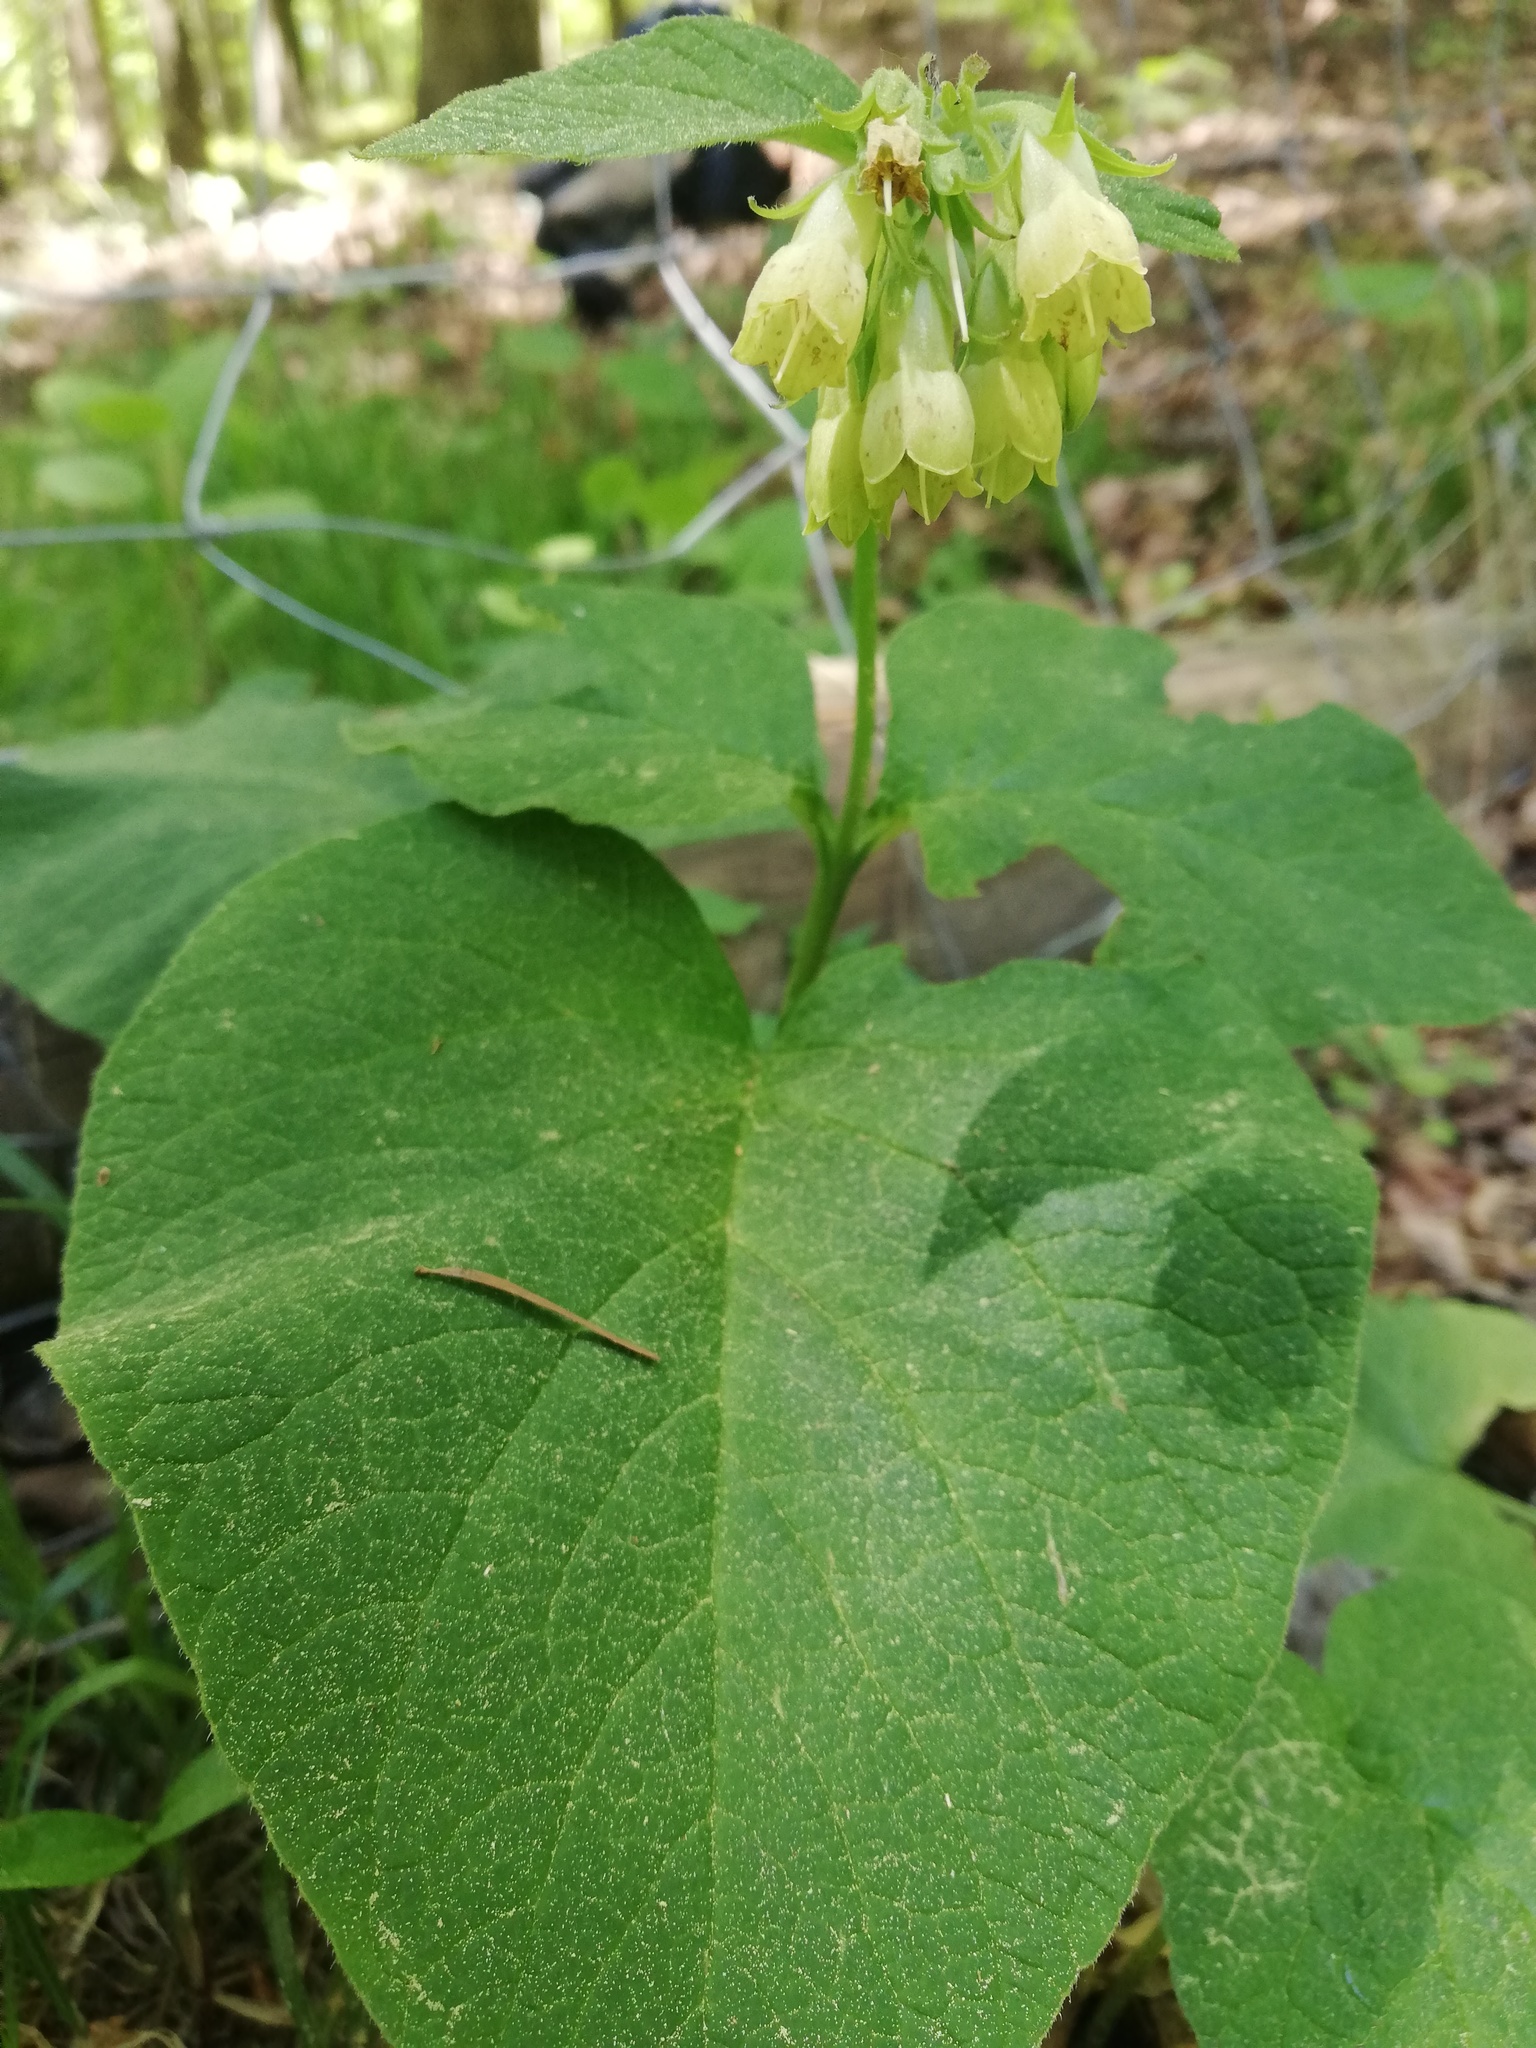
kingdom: Plantae
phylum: Tracheophyta
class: Magnoliopsida
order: Boraginales
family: Boraginaceae
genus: Symphytum
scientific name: Symphytum cordatum
